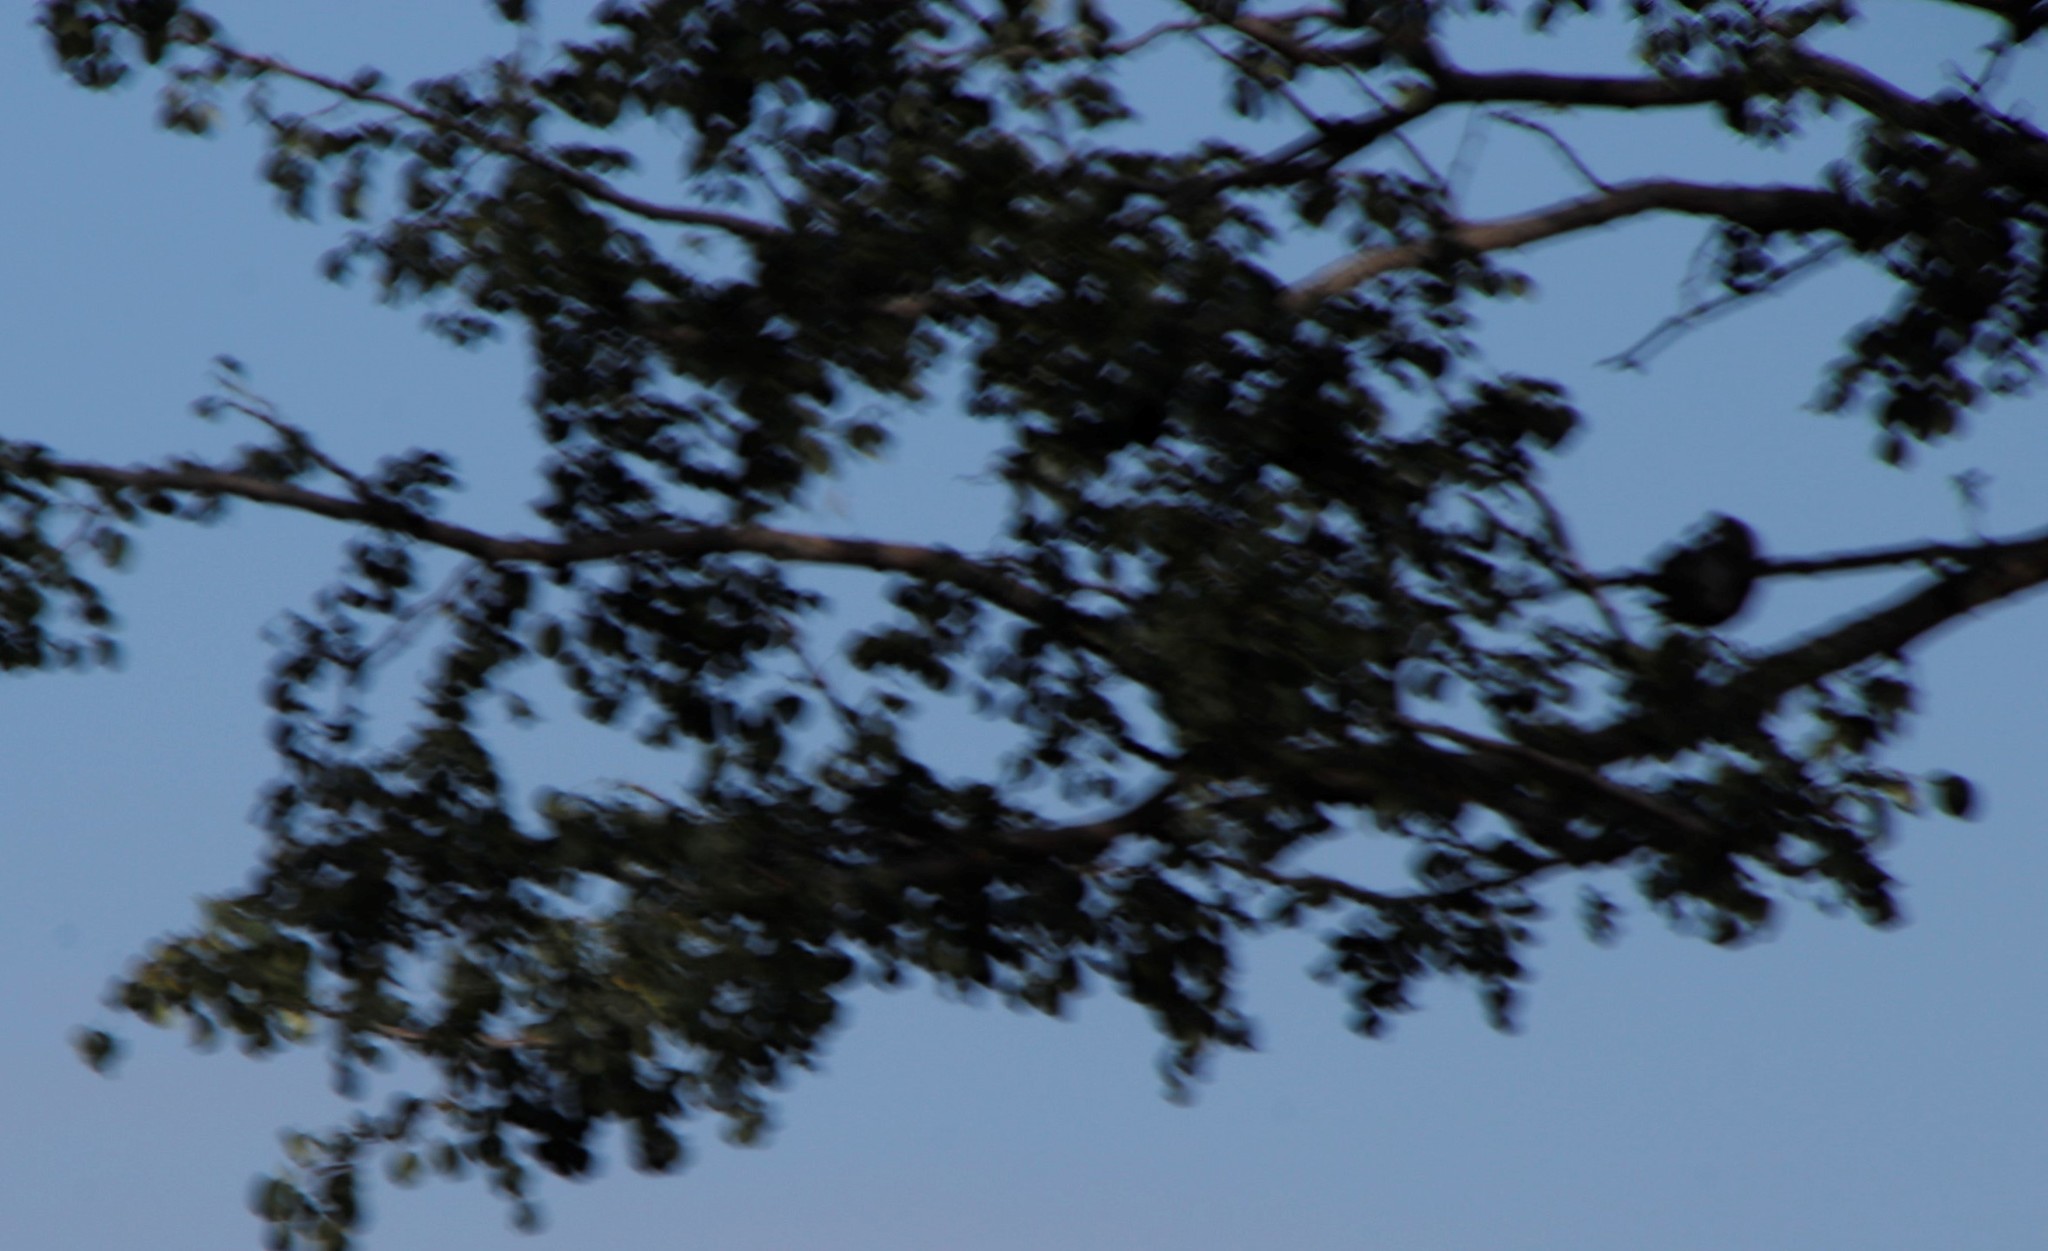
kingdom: Plantae
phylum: Tracheophyta
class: Magnoliopsida
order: Fabales
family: Fabaceae
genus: Senegalia
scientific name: Senegalia nigrescens
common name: Knobthorn
